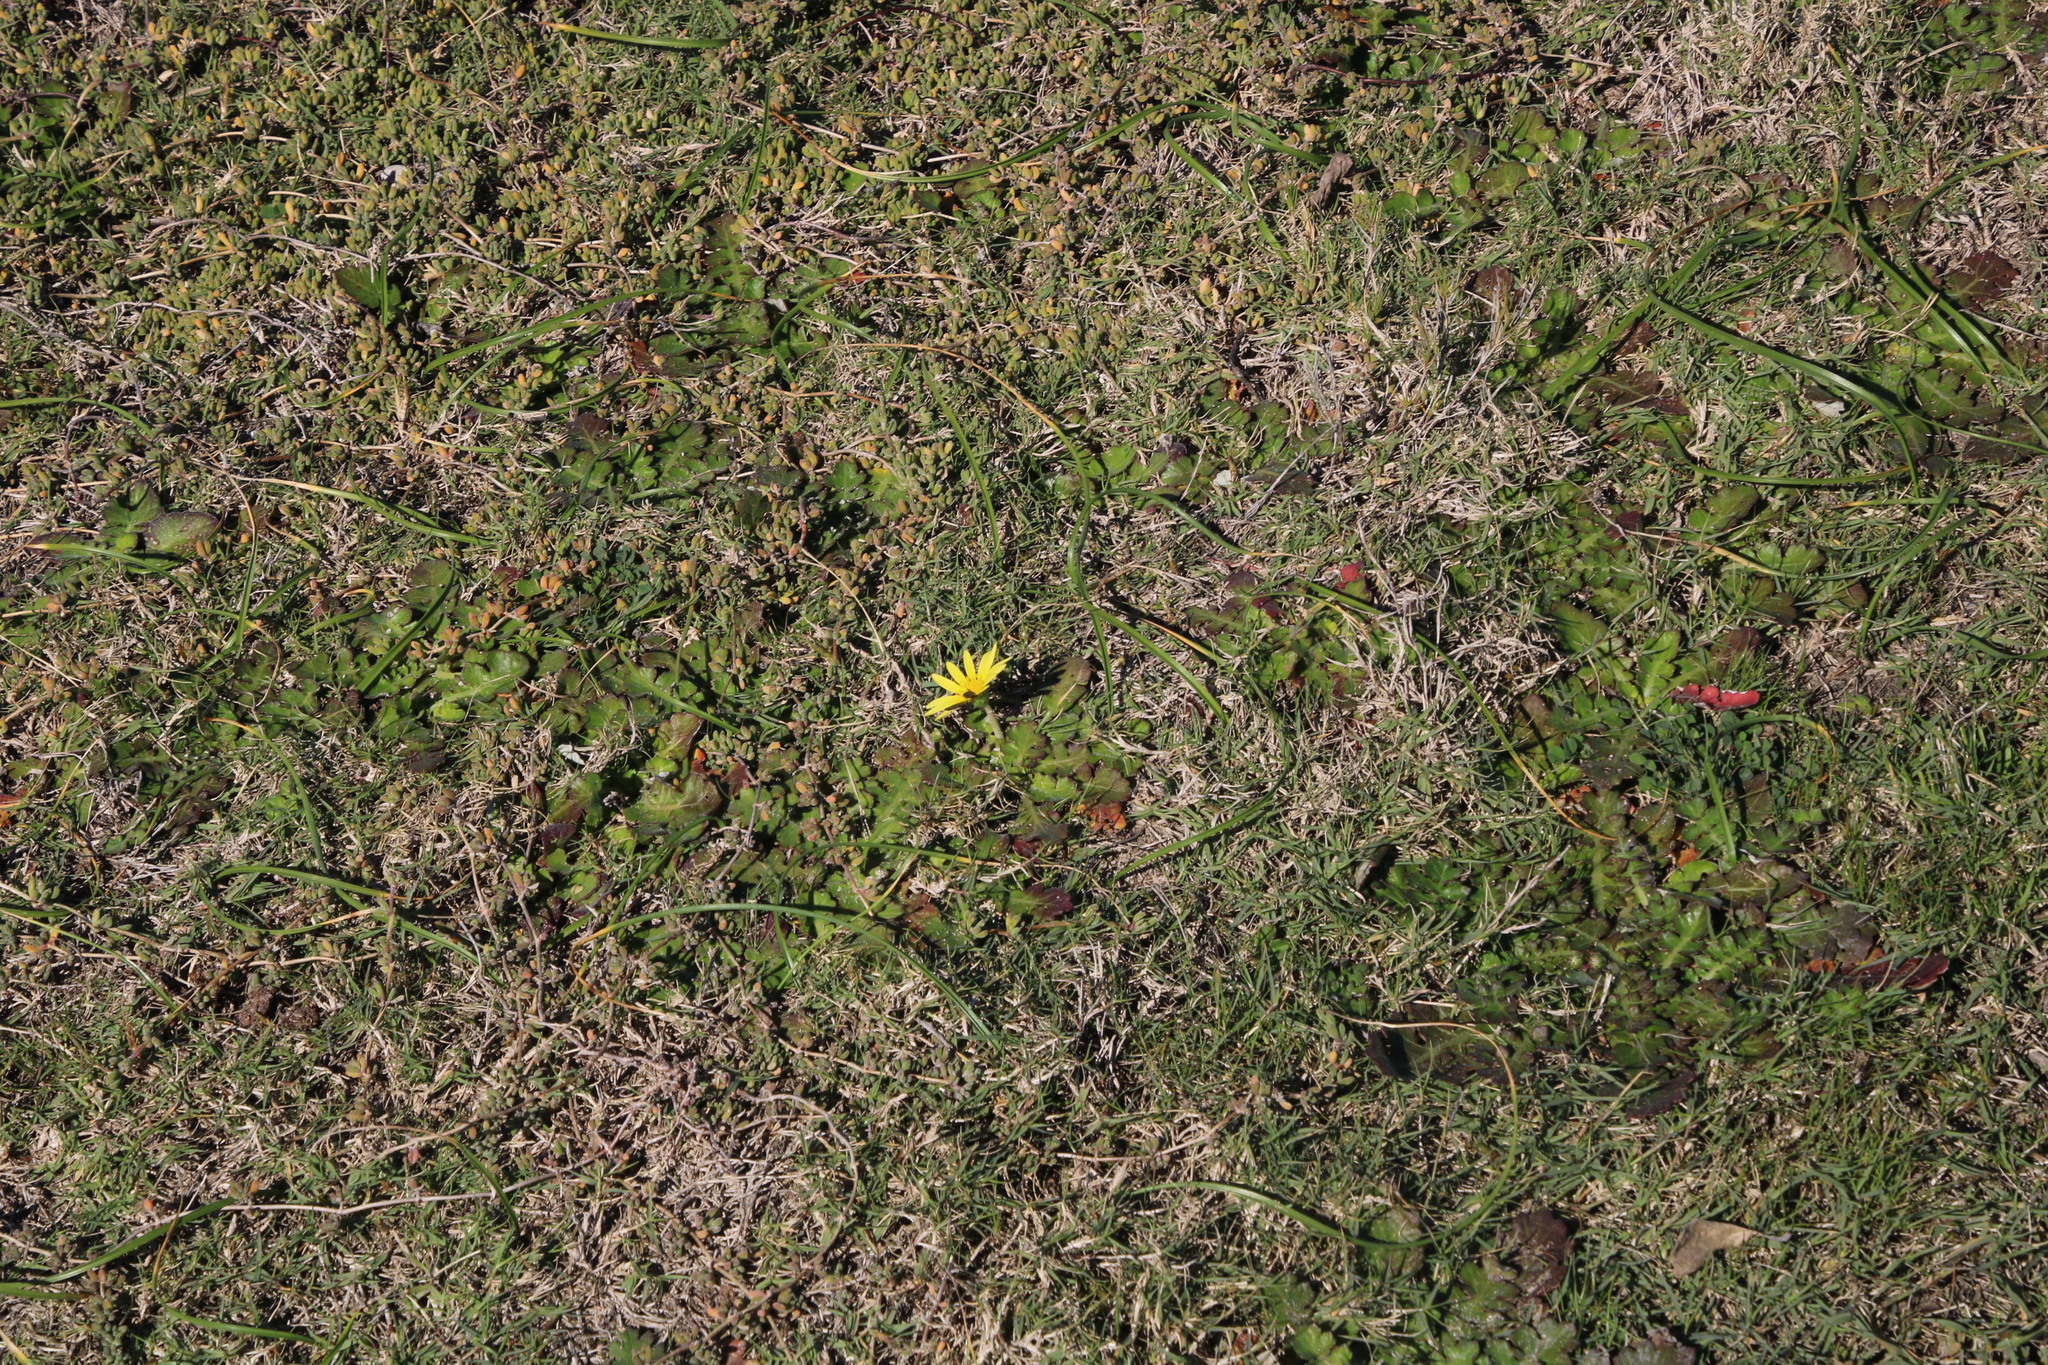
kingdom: Plantae
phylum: Tracheophyta
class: Magnoliopsida
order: Asterales
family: Asteraceae
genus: Arctotheca
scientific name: Arctotheca prostrata
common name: Capeweed
